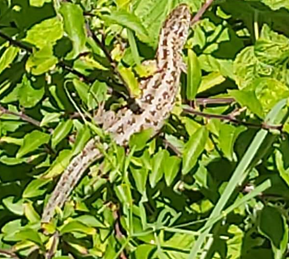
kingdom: Animalia
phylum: Chordata
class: Squamata
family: Lacertidae
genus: Lacerta
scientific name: Lacerta agilis
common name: Sand lizard
